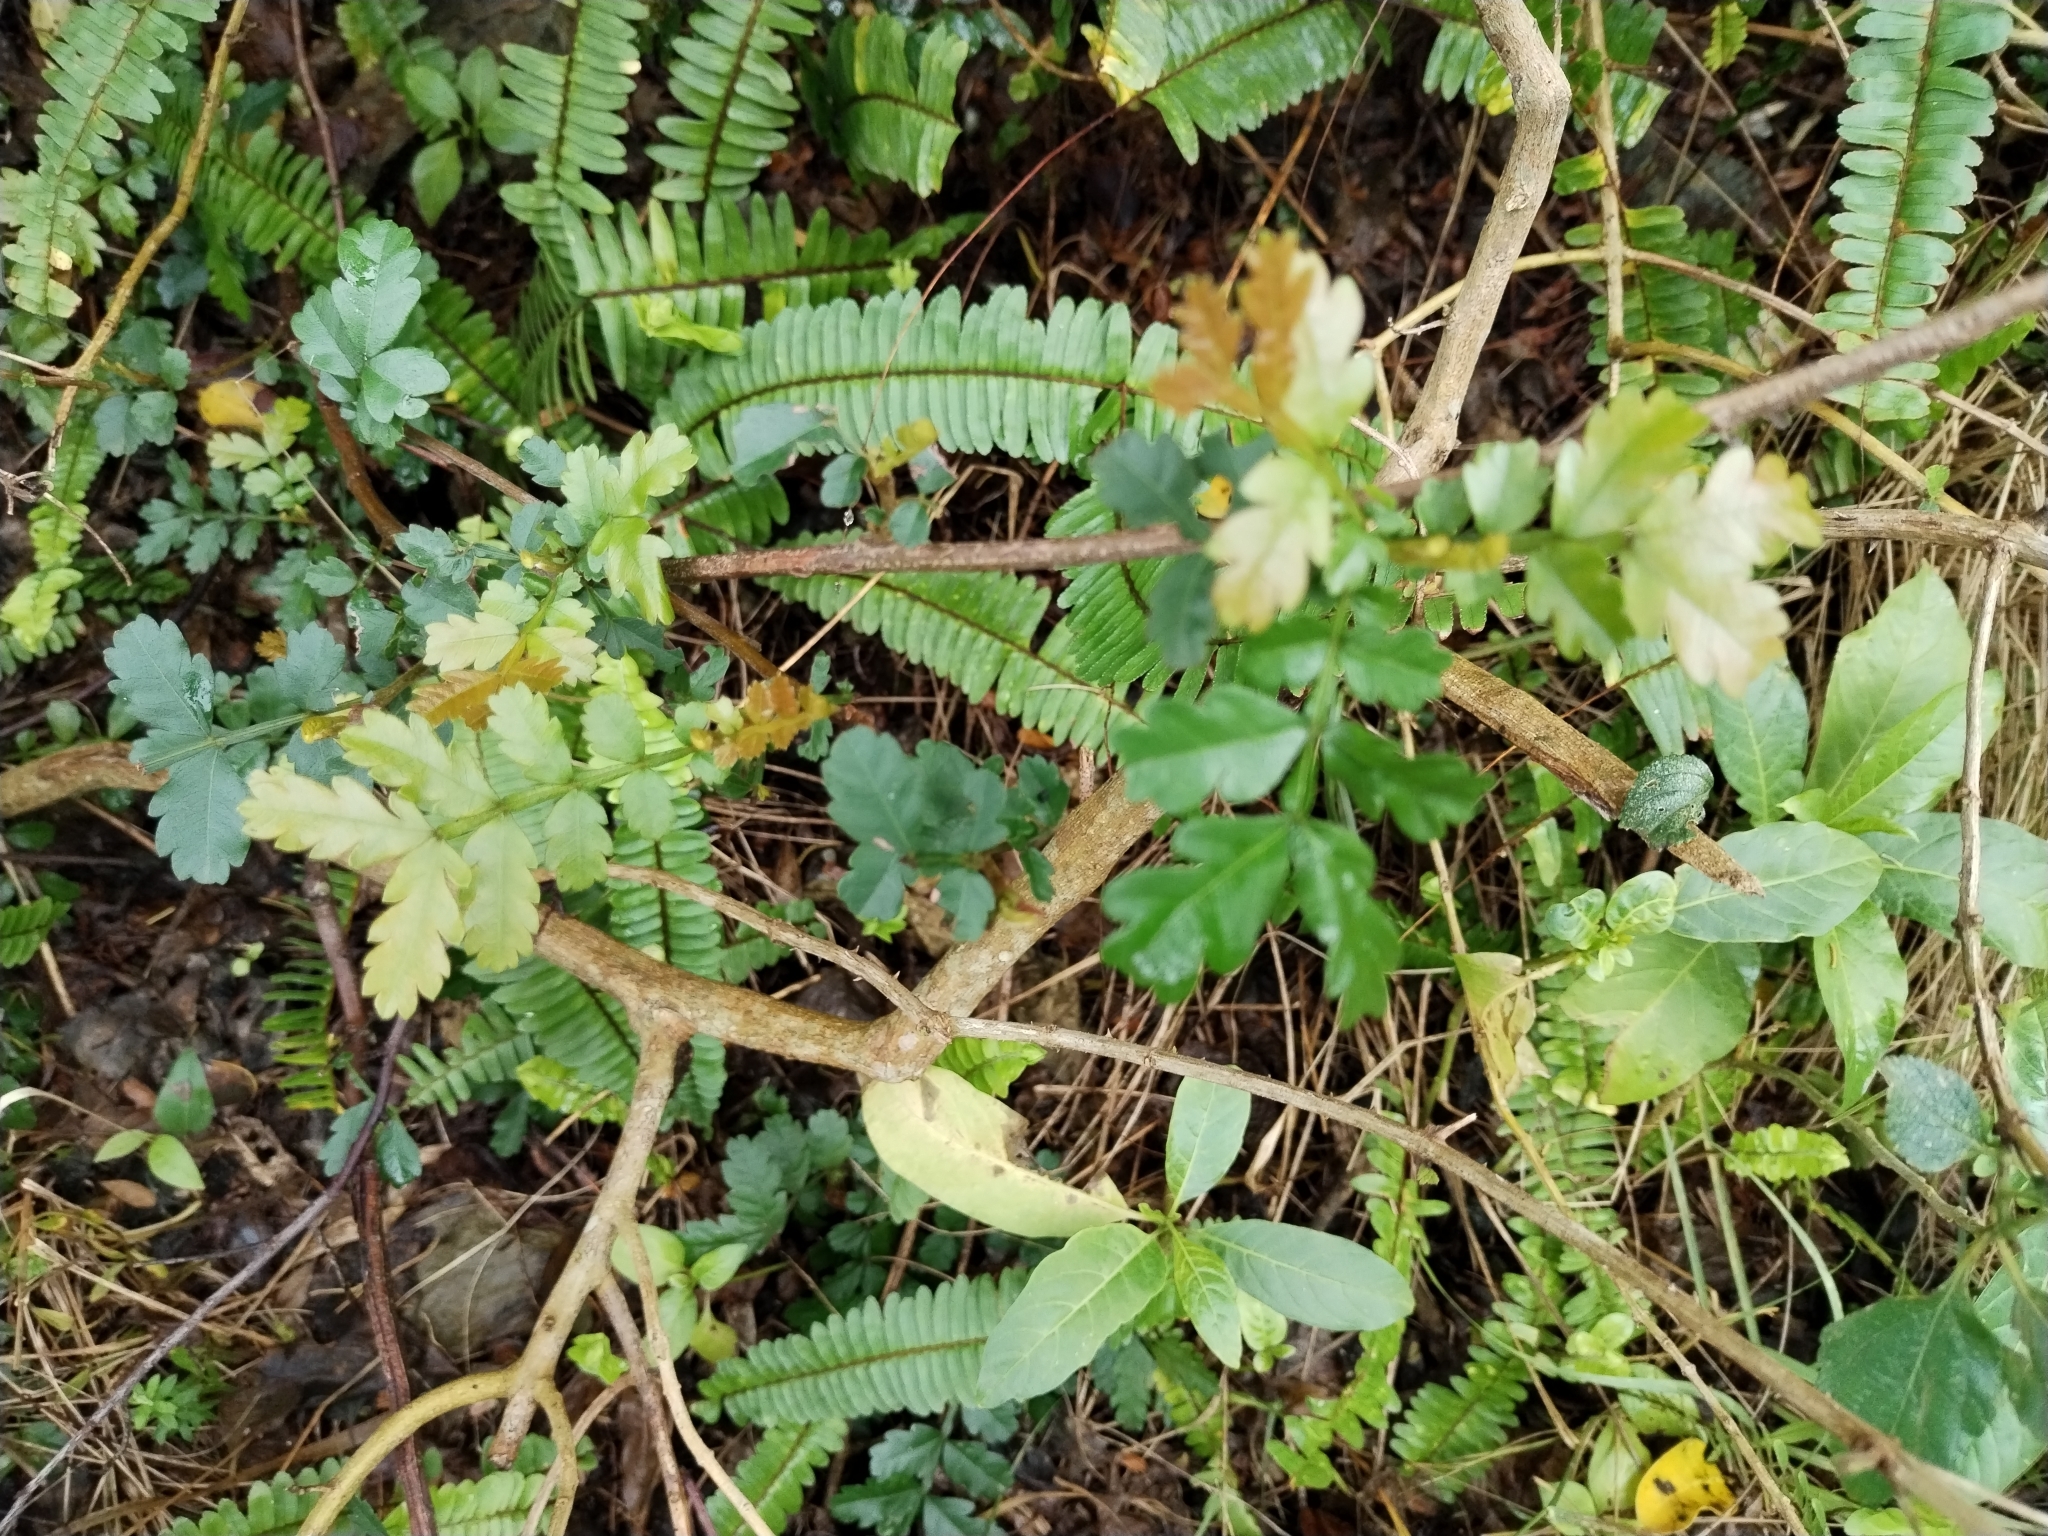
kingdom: Plantae
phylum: Tracheophyta
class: Magnoliopsida
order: Sapindales
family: Sapindaceae
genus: Hippobromus
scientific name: Hippobromus pauciflorus
